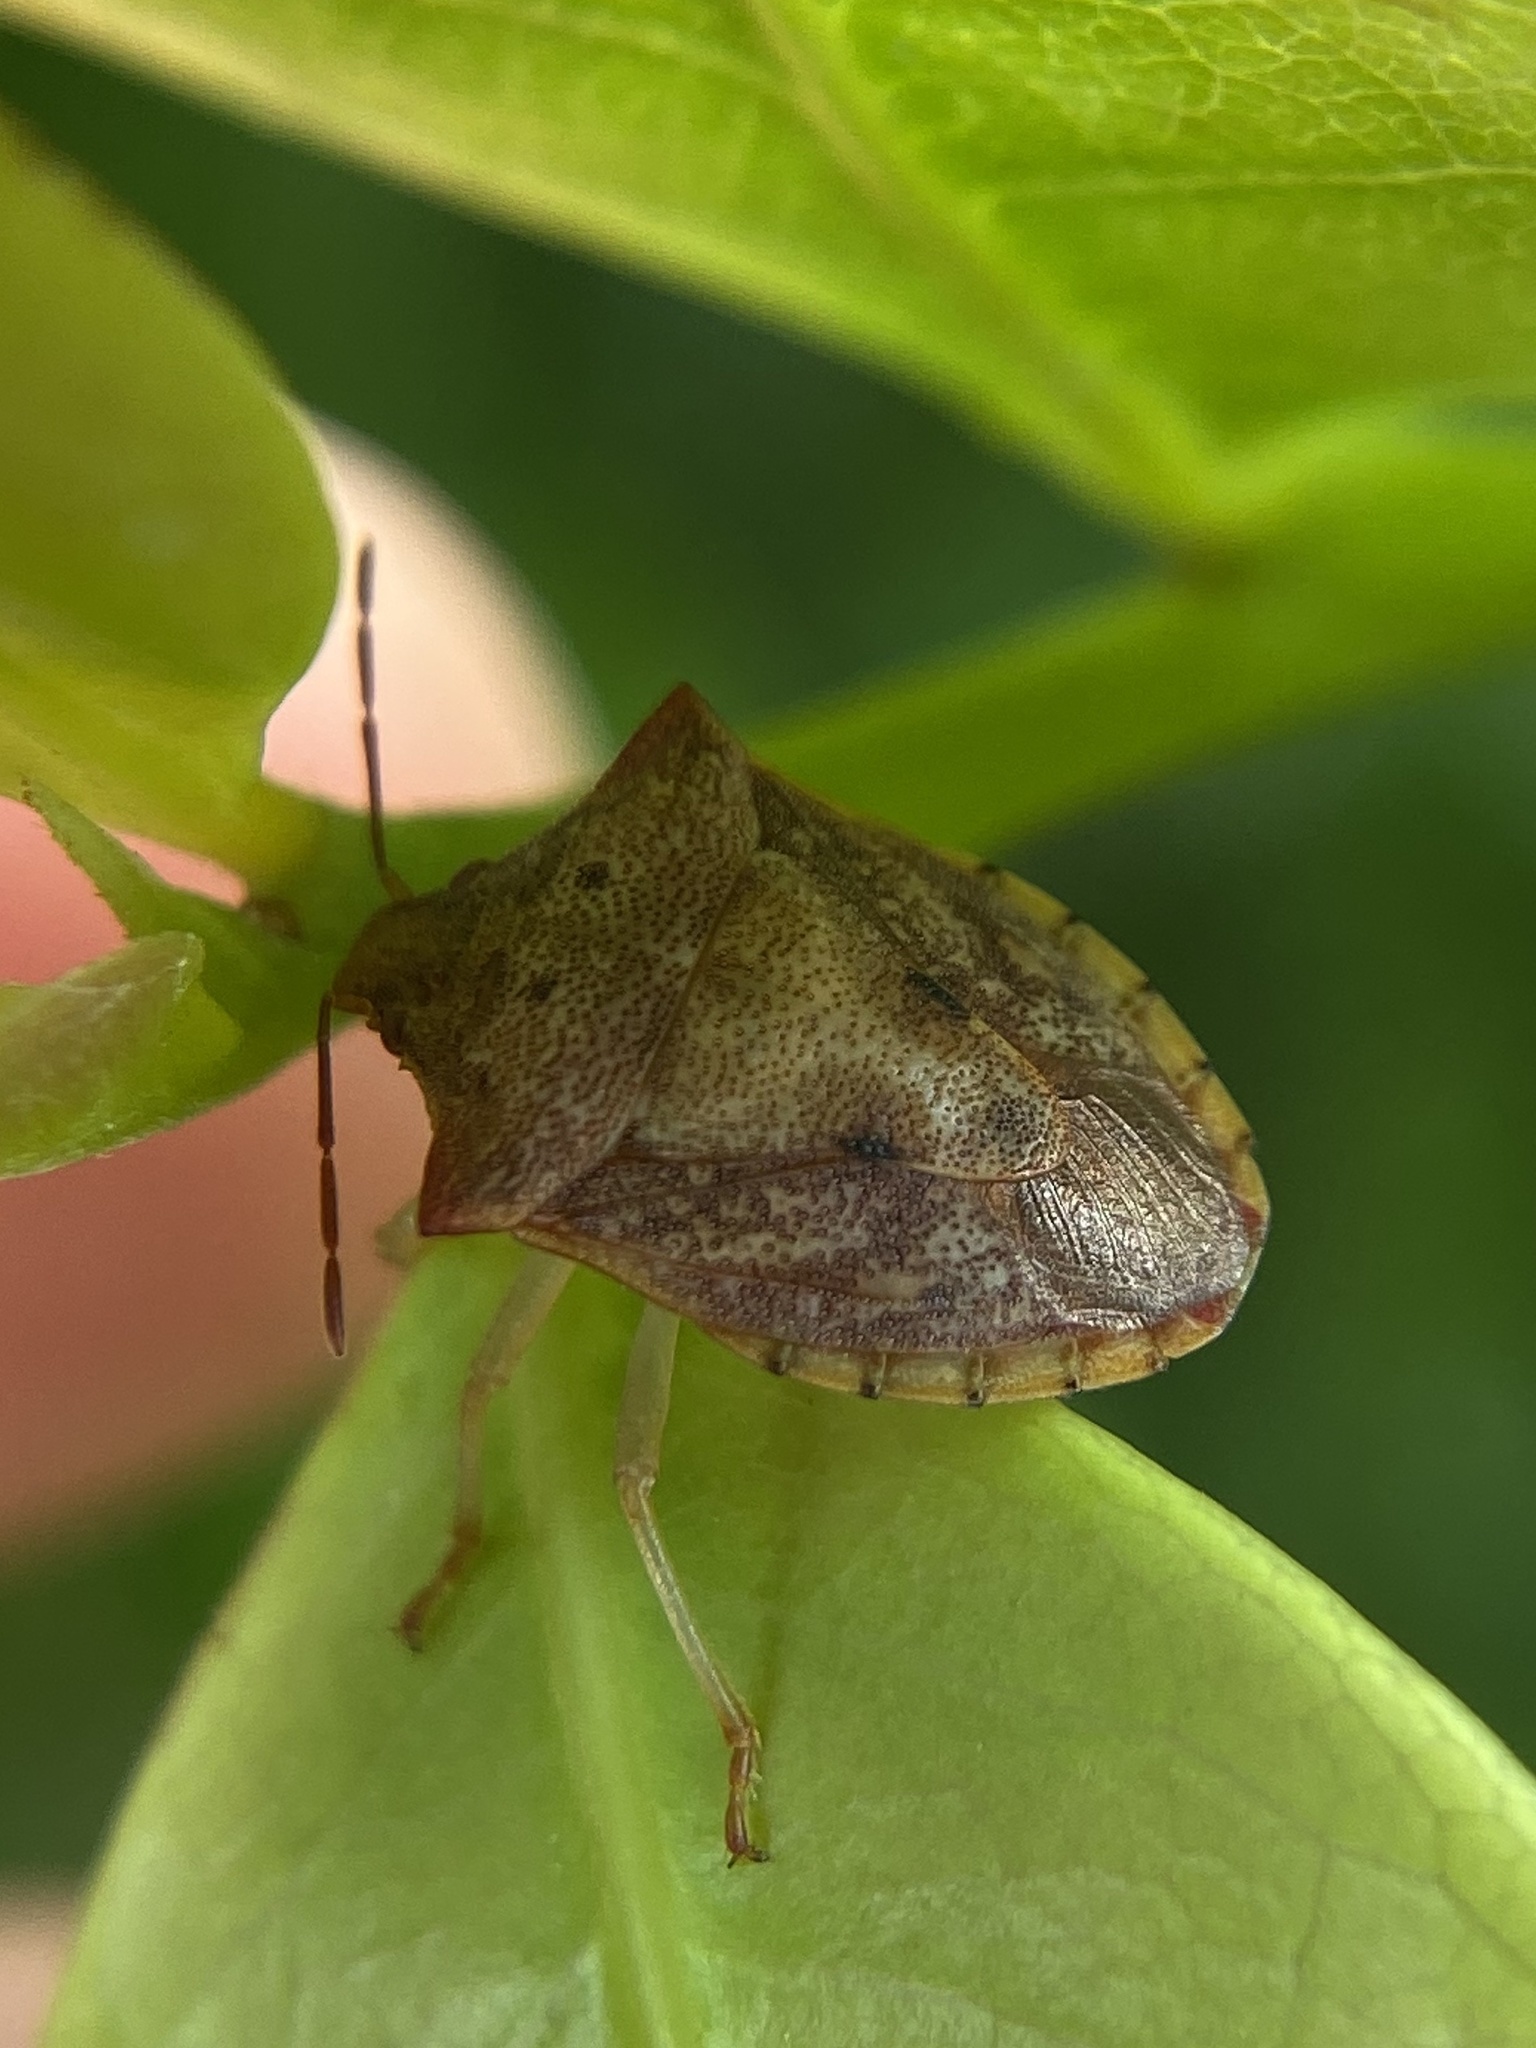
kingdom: Animalia
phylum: Arthropoda
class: Insecta
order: Hemiptera
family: Pentatomidae
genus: Dendrocoris
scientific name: Dendrocoris humeralis
